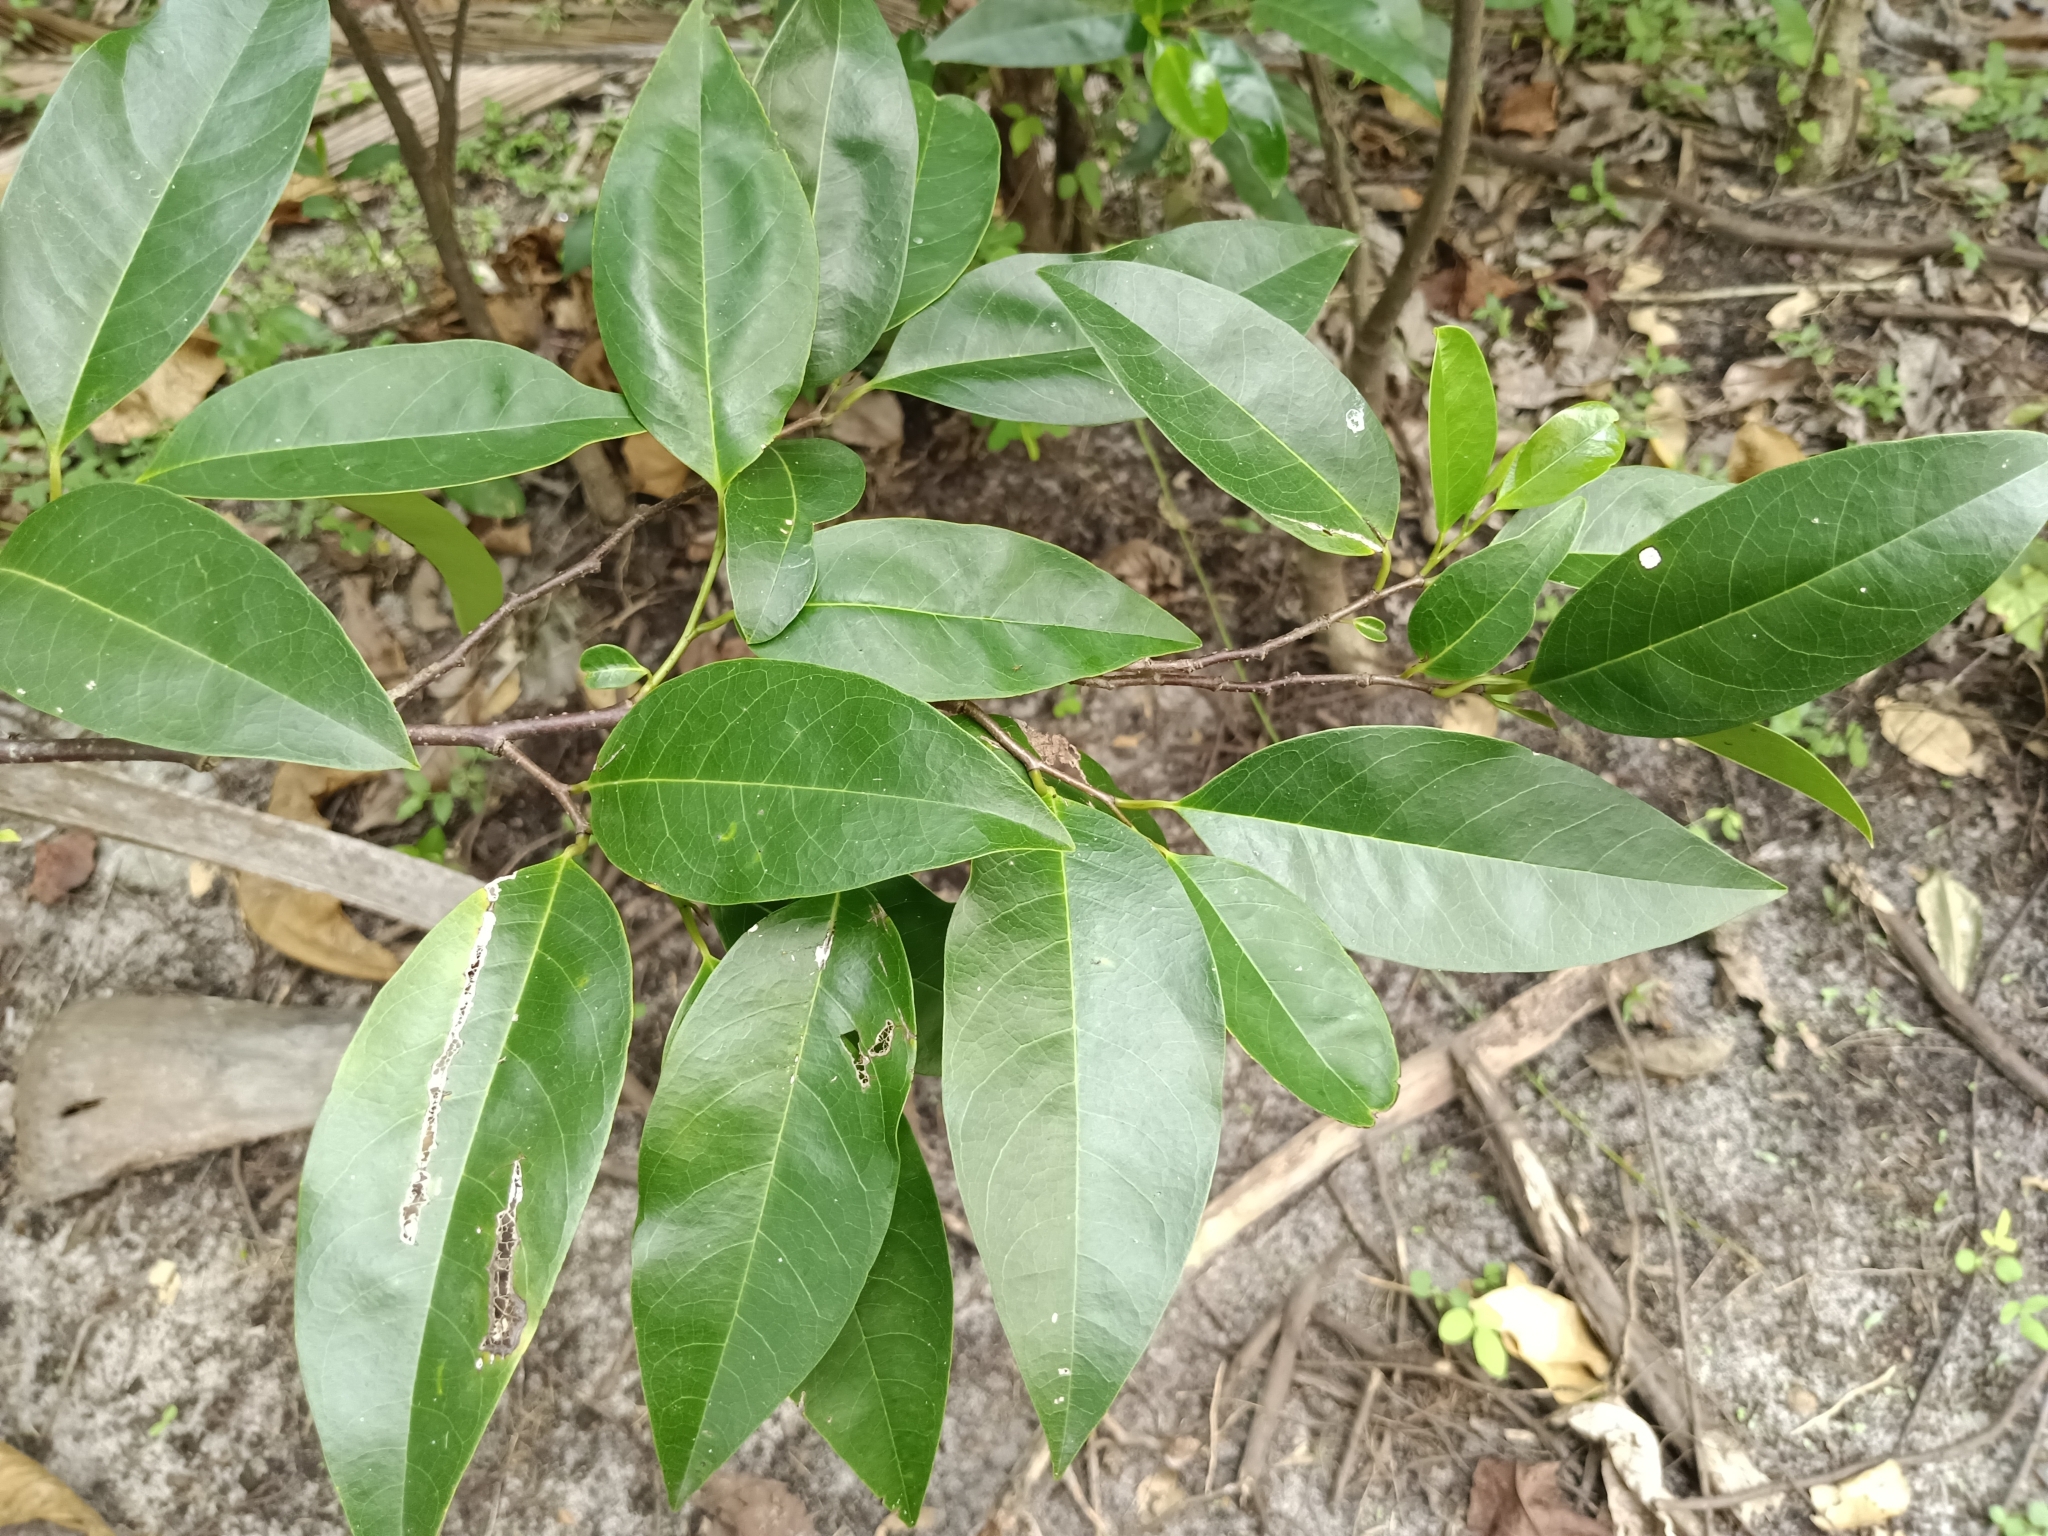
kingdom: Plantae
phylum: Tracheophyta
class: Magnoliopsida
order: Magnoliales
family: Annonaceae
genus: Annona
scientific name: Annona glabra
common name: Monkey apple
